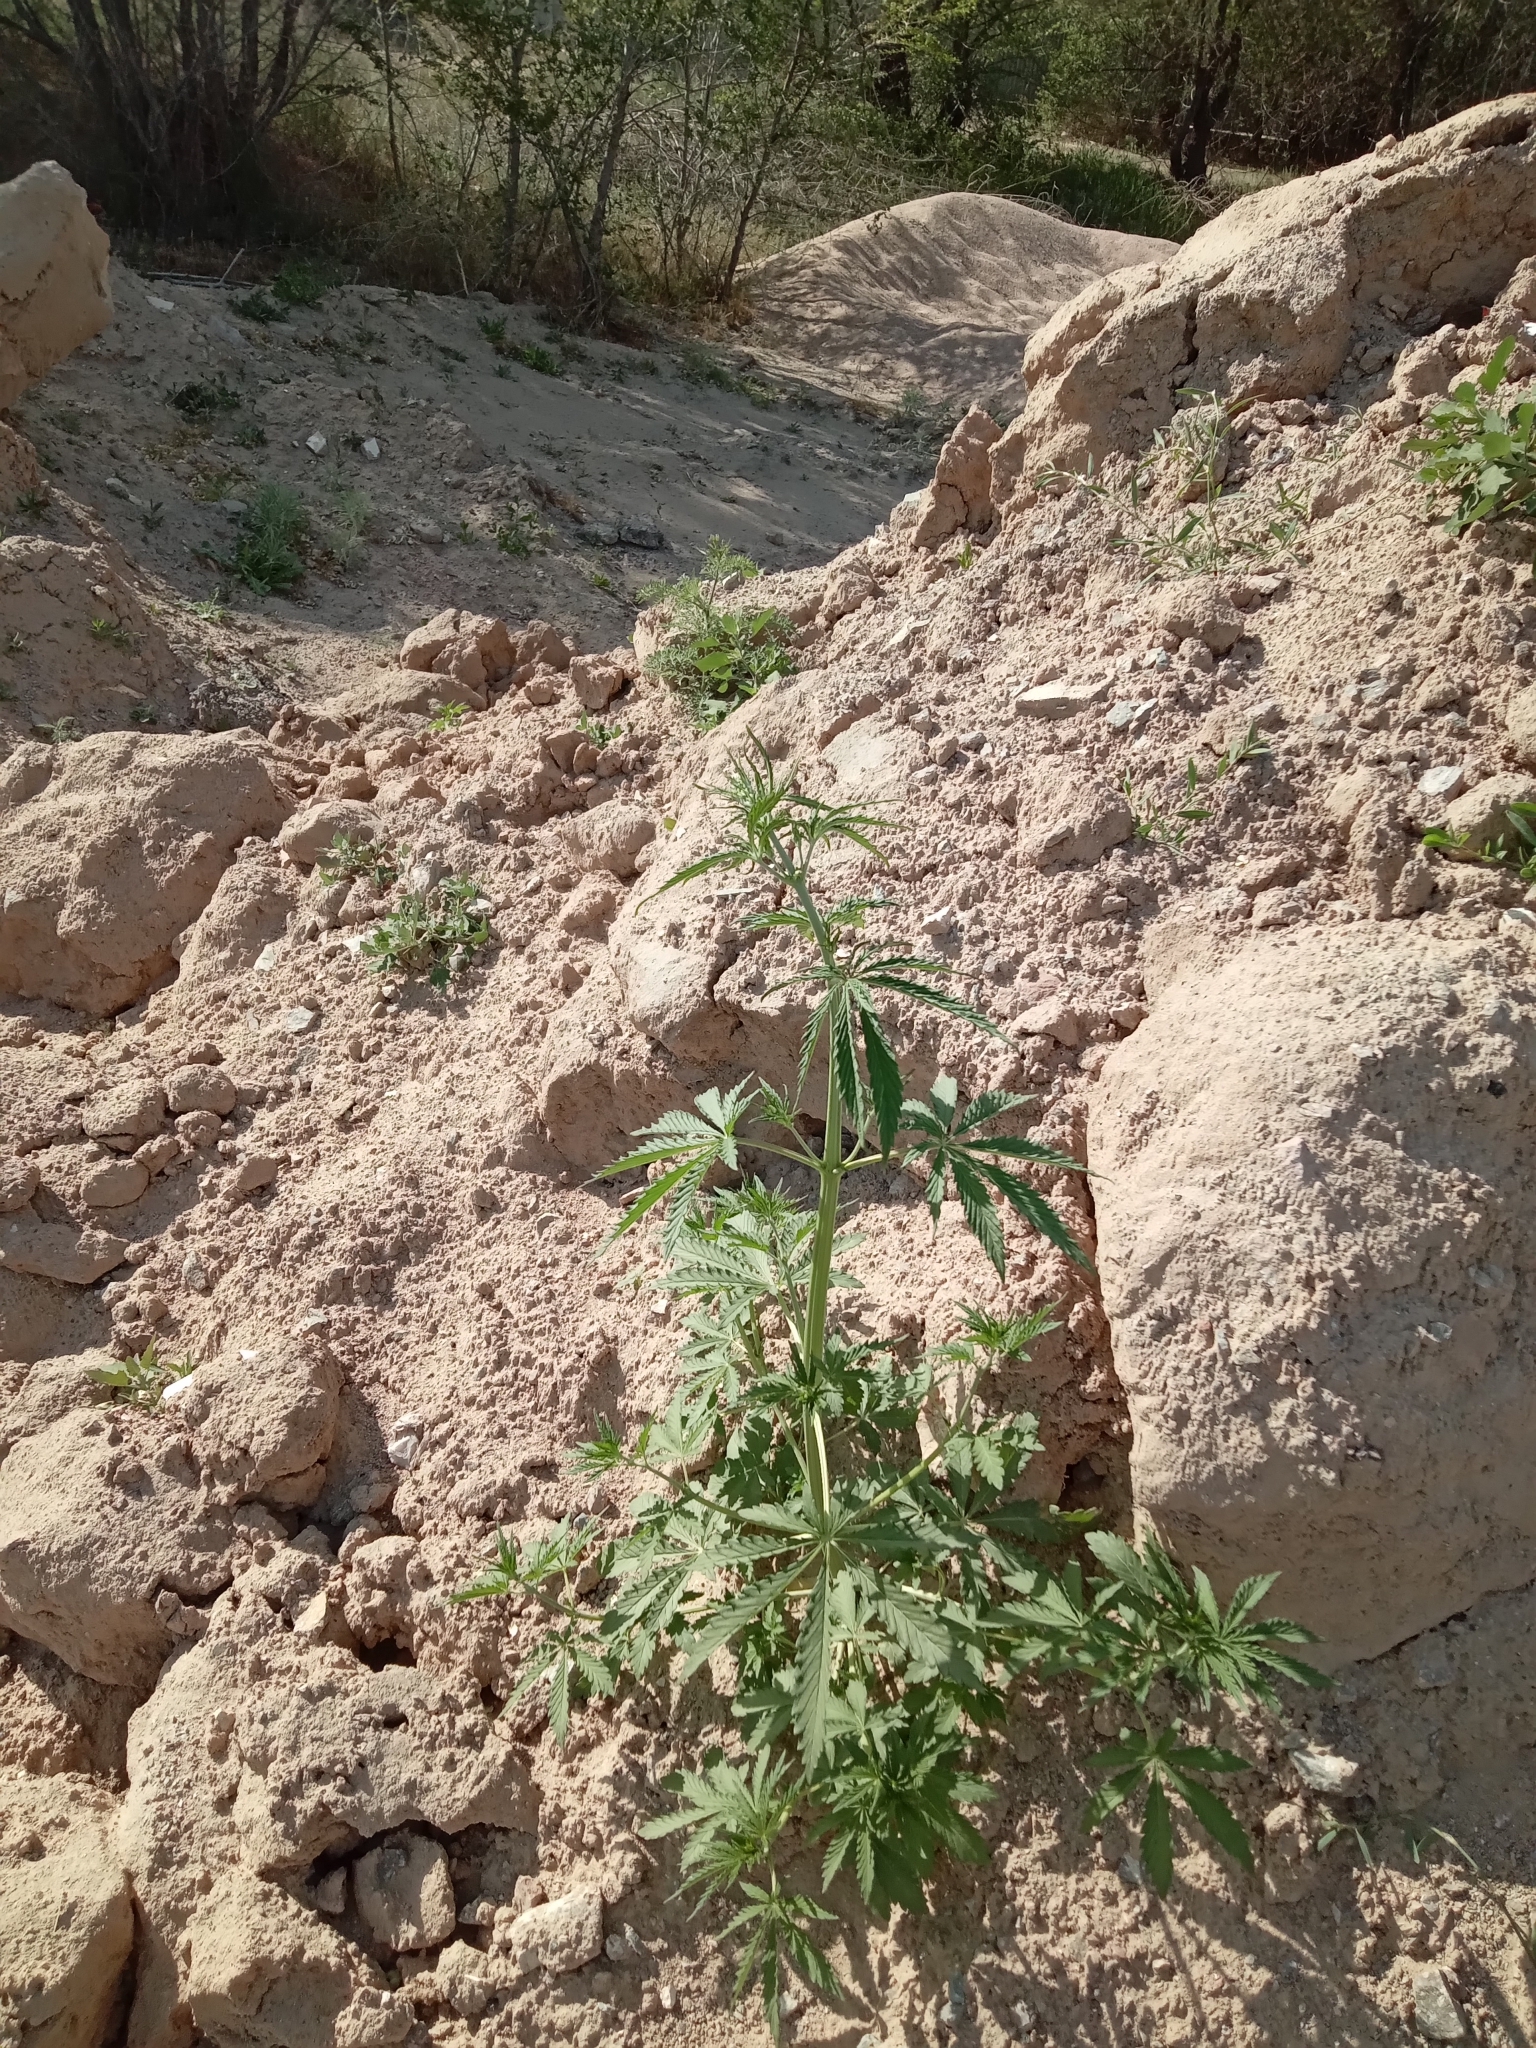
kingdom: Plantae
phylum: Tracheophyta
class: Magnoliopsida
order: Rosales
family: Cannabaceae
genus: Cannabis
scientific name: Cannabis sativa
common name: Hemp
